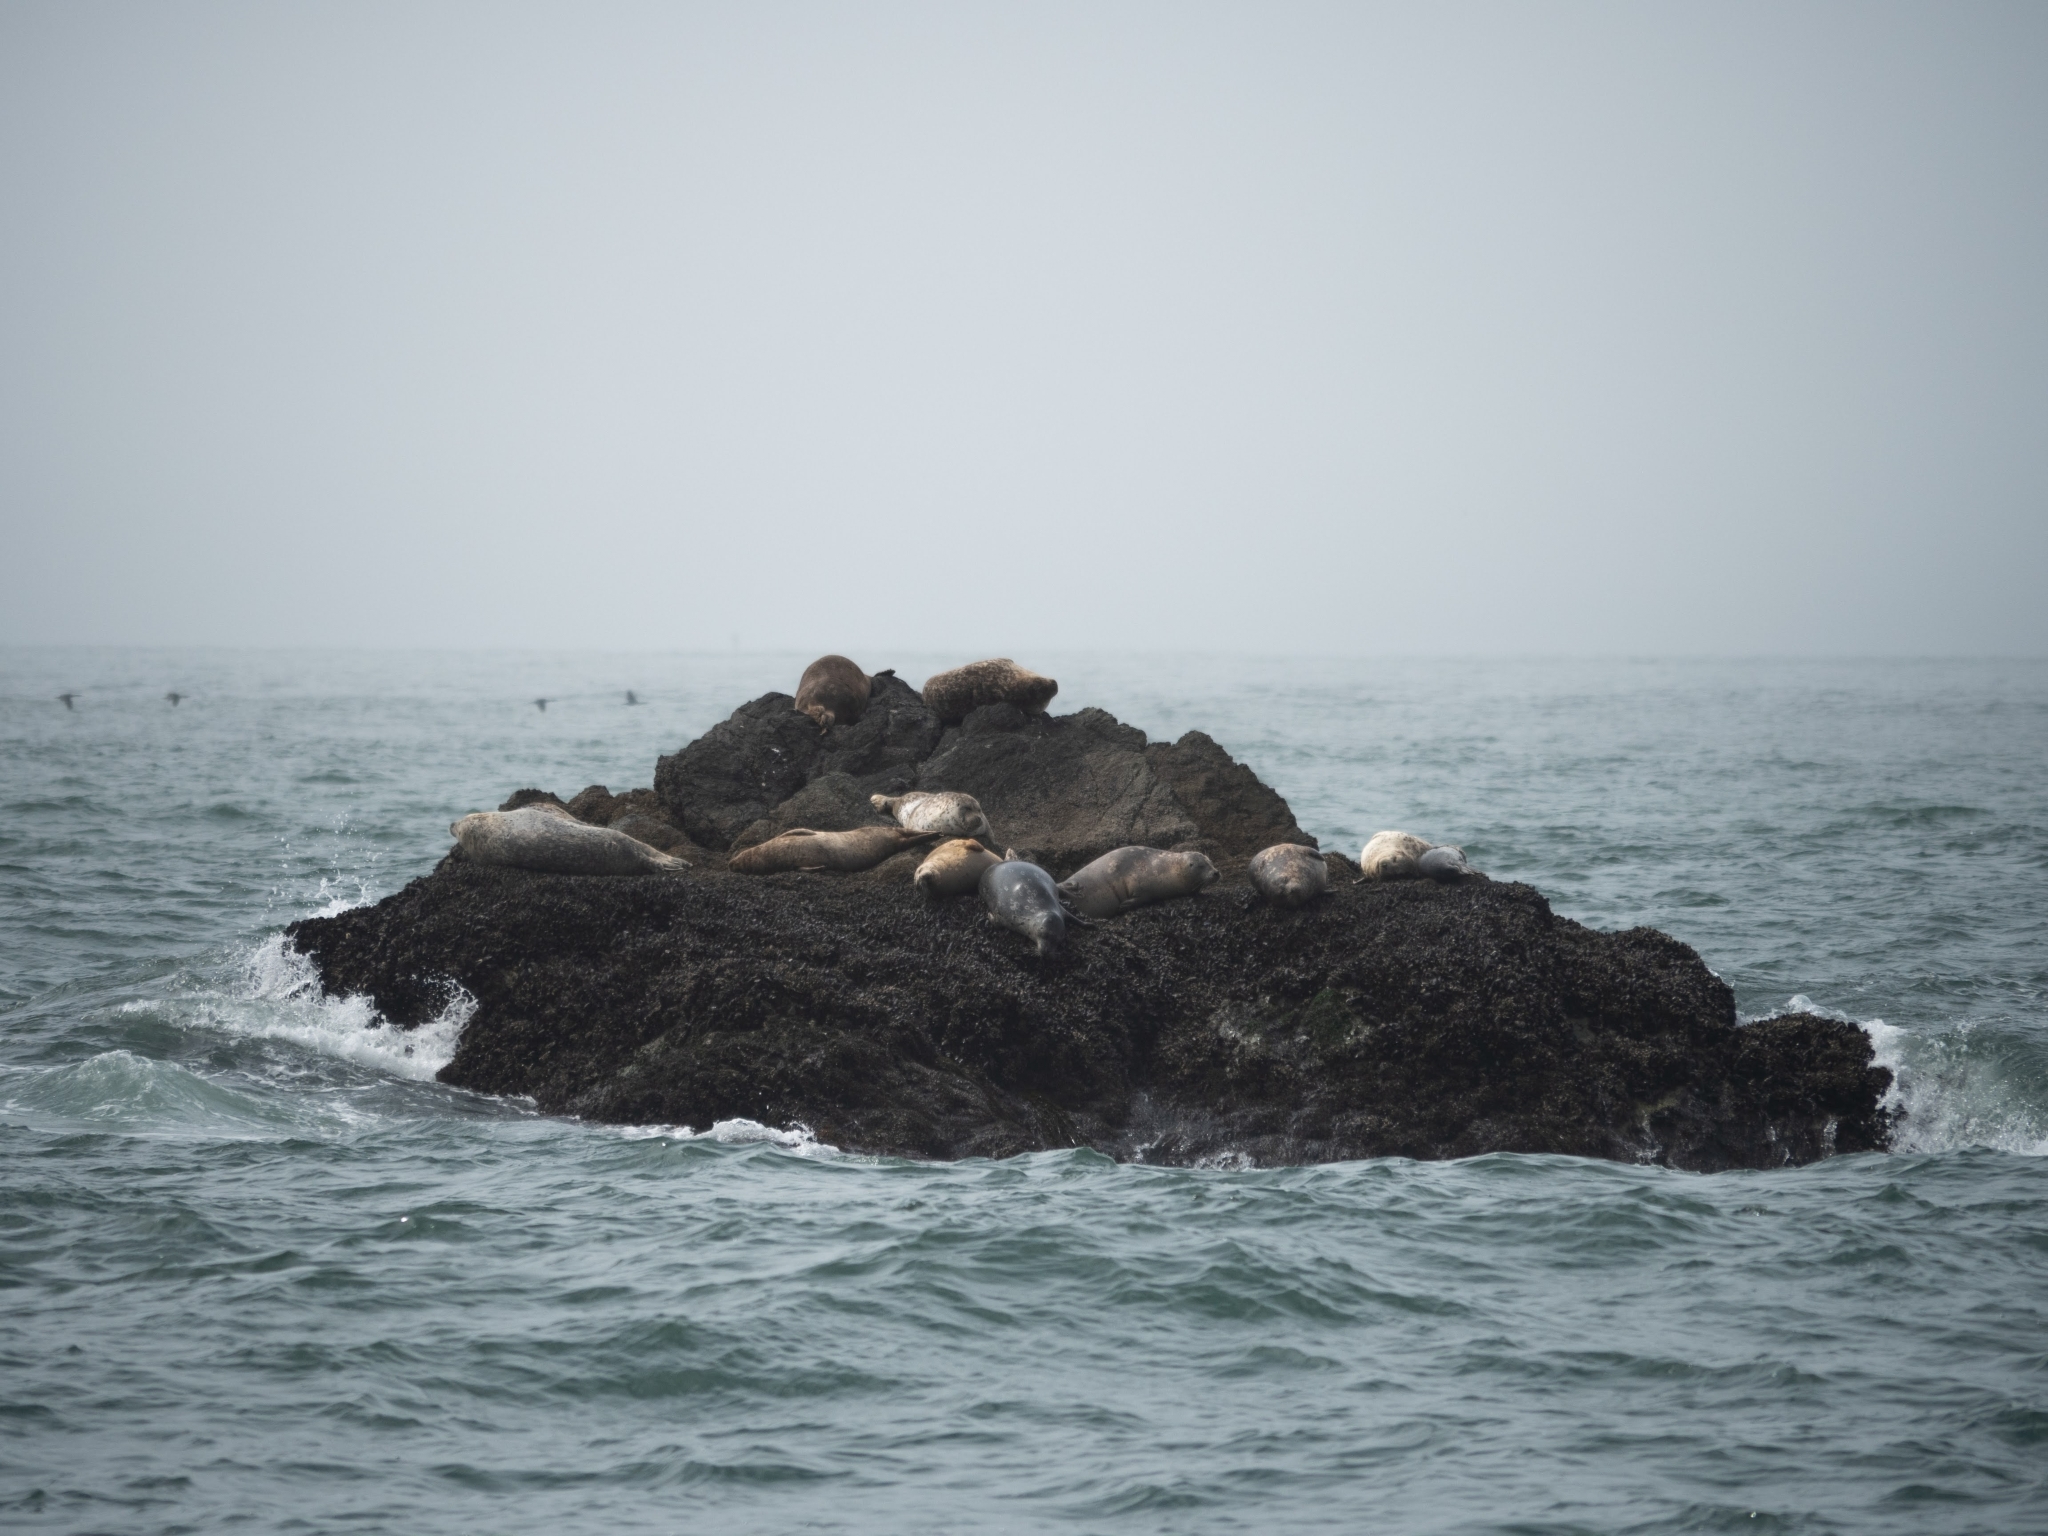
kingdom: Animalia
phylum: Chordata
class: Mammalia
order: Carnivora
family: Phocidae
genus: Phoca
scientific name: Phoca vitulina
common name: Harbor seal
